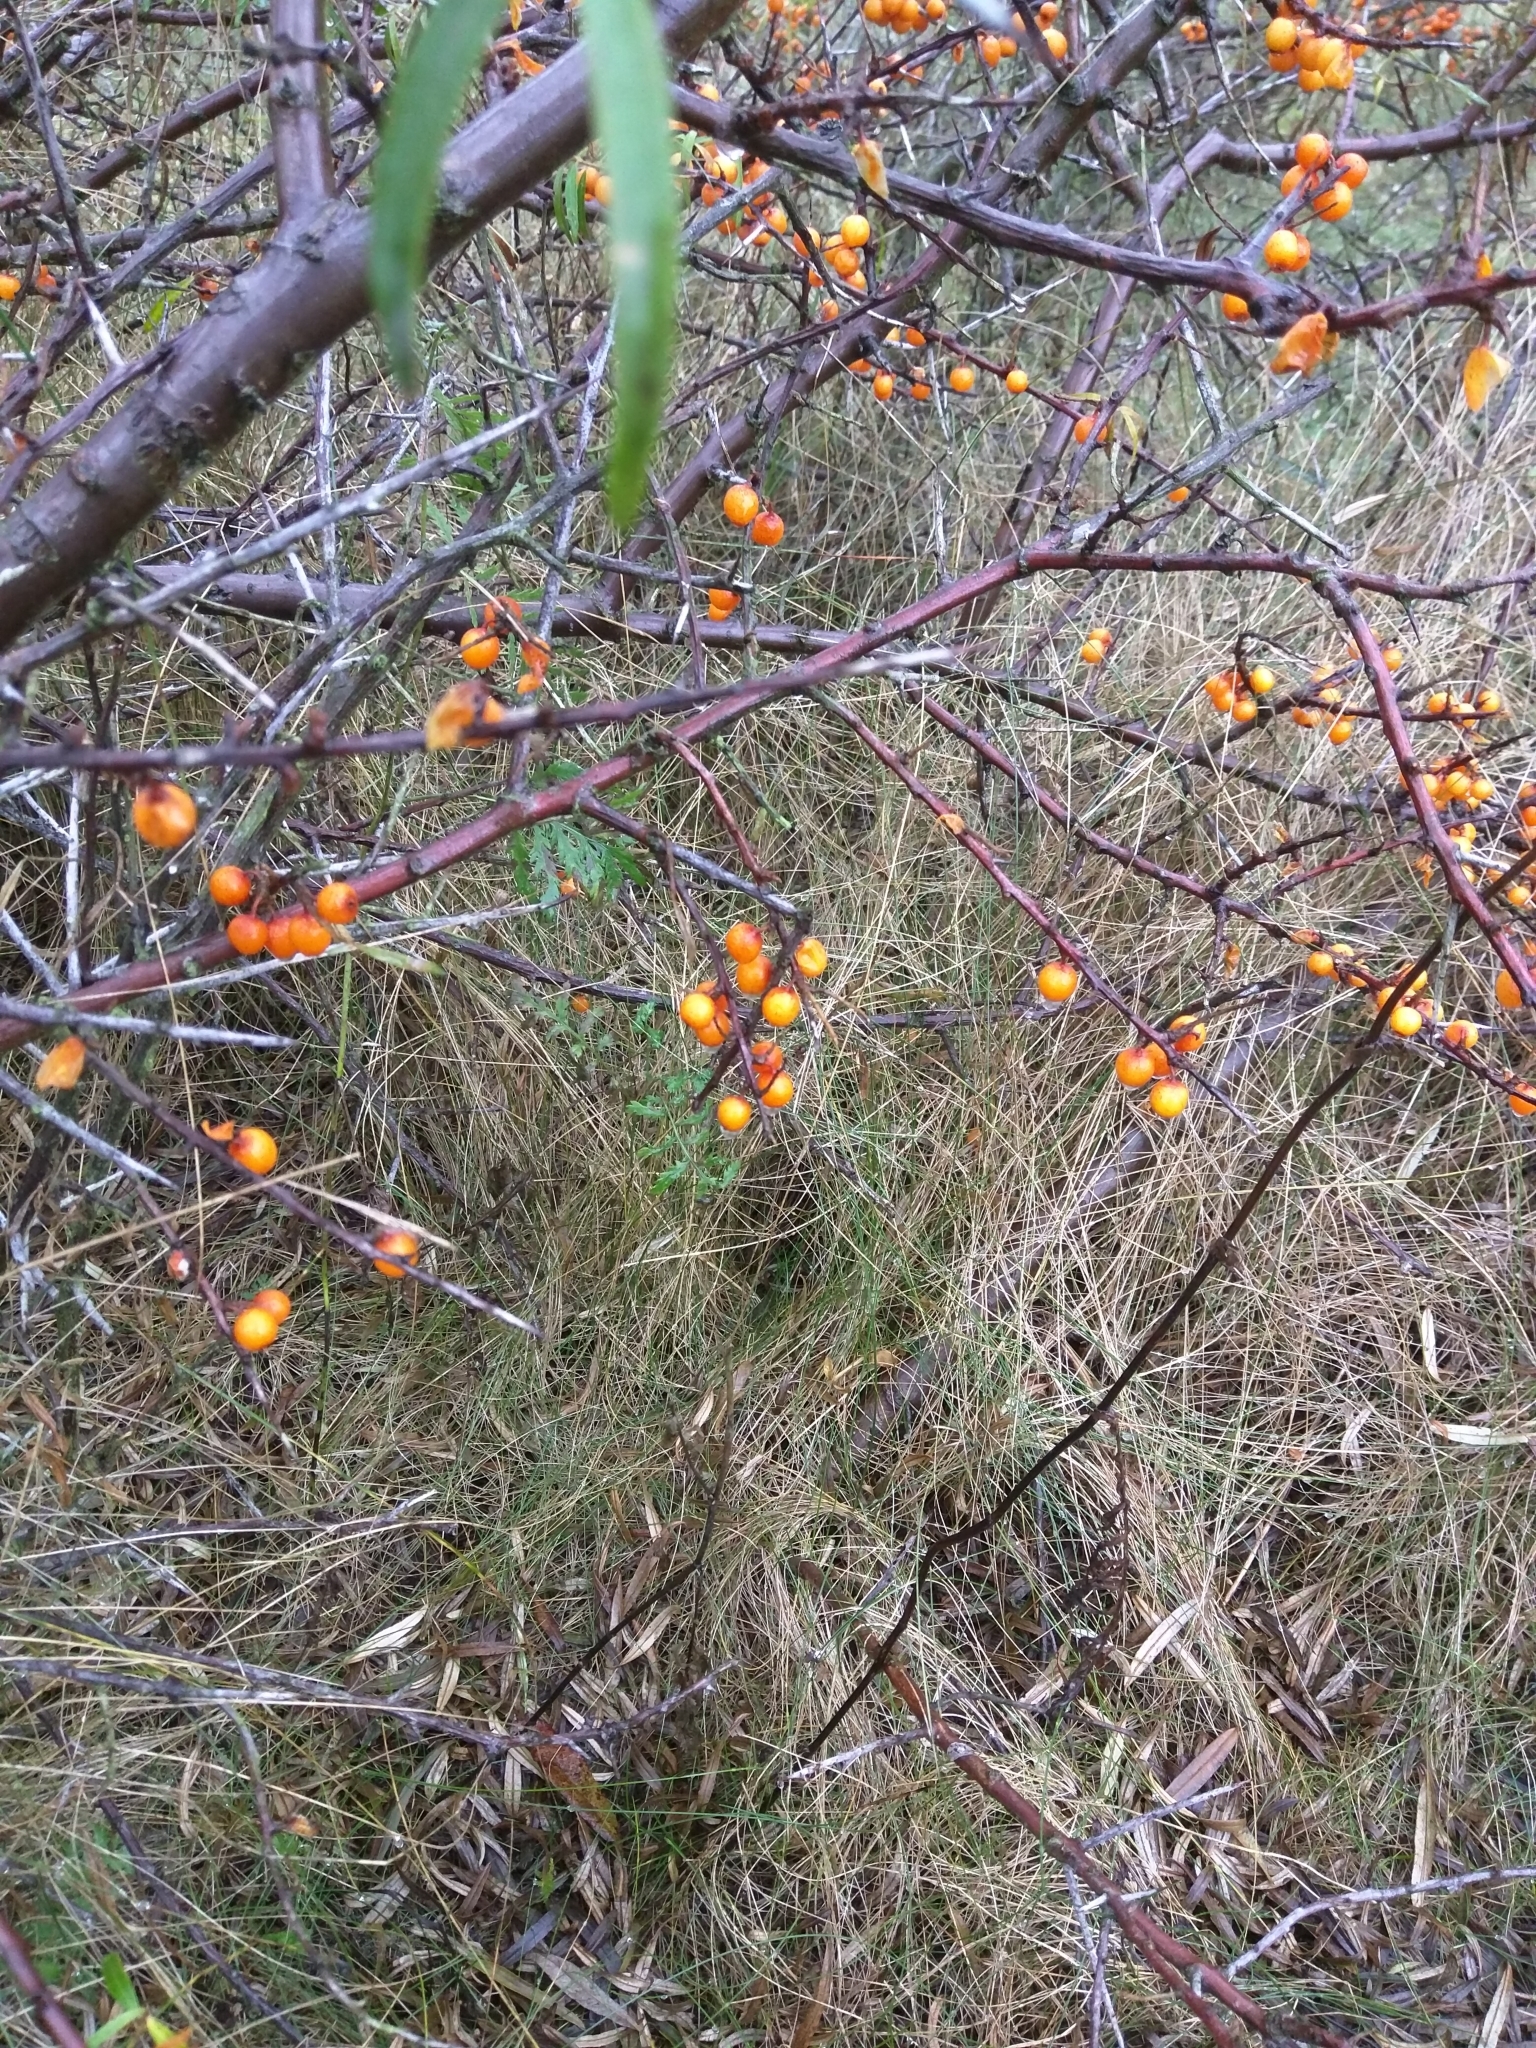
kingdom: Plantae
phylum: Tracheophyta
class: Magnoliopsida
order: Rosales
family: Elaeagnaceae
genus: Hippophae
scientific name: Hippophae rhamnoides
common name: Sea-buckthorn
